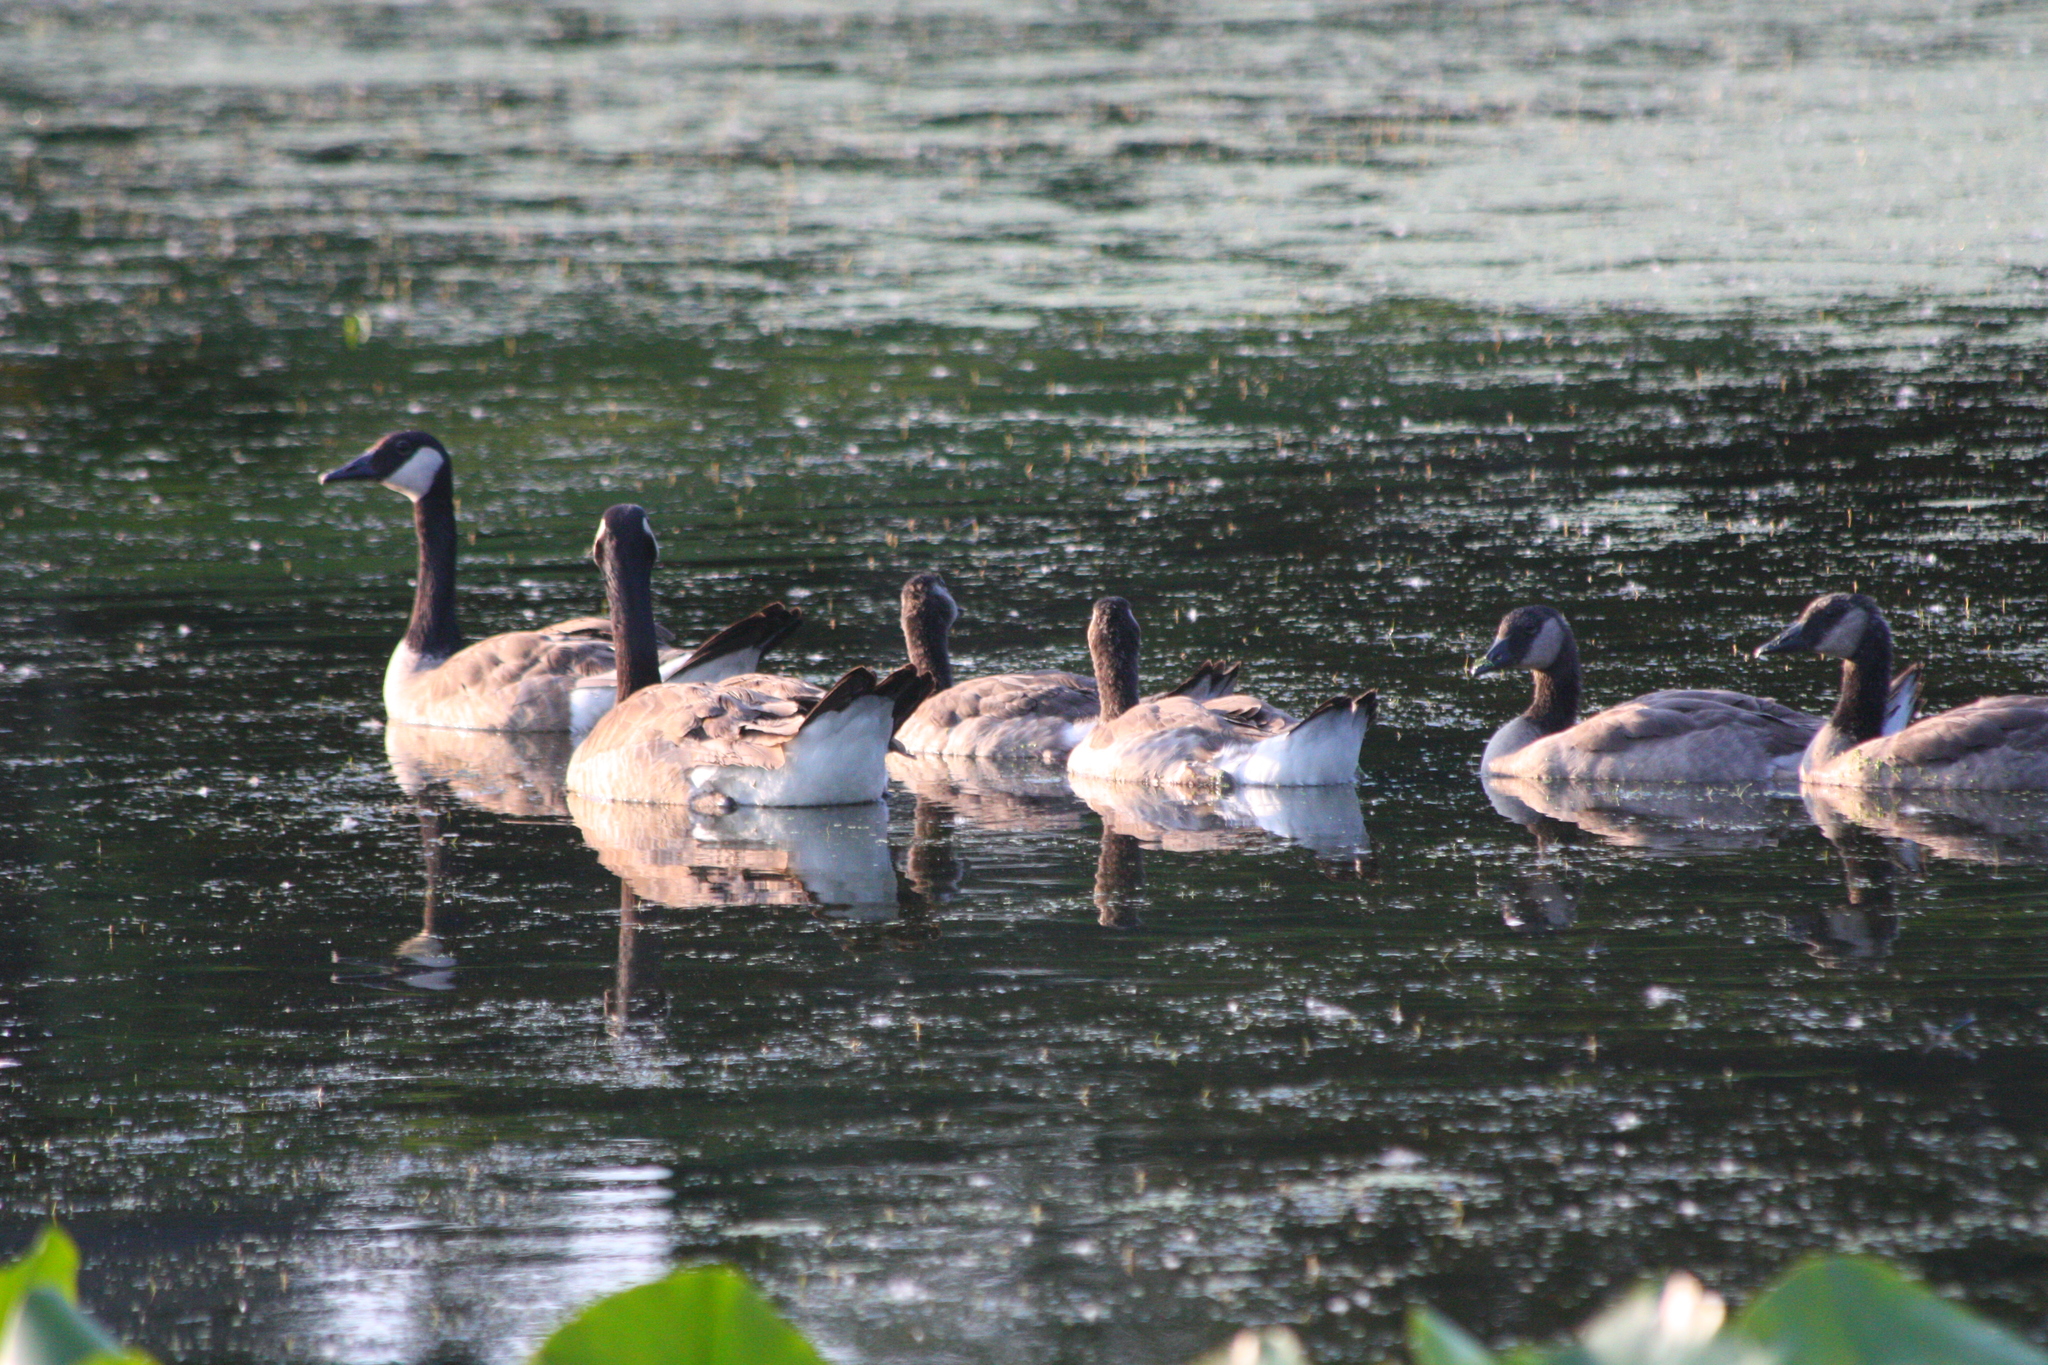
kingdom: Animalia
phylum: Chordata
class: Aves
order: Anseriformes
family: Anatidae
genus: Branta
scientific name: Branta canadensis
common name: Canada goose
